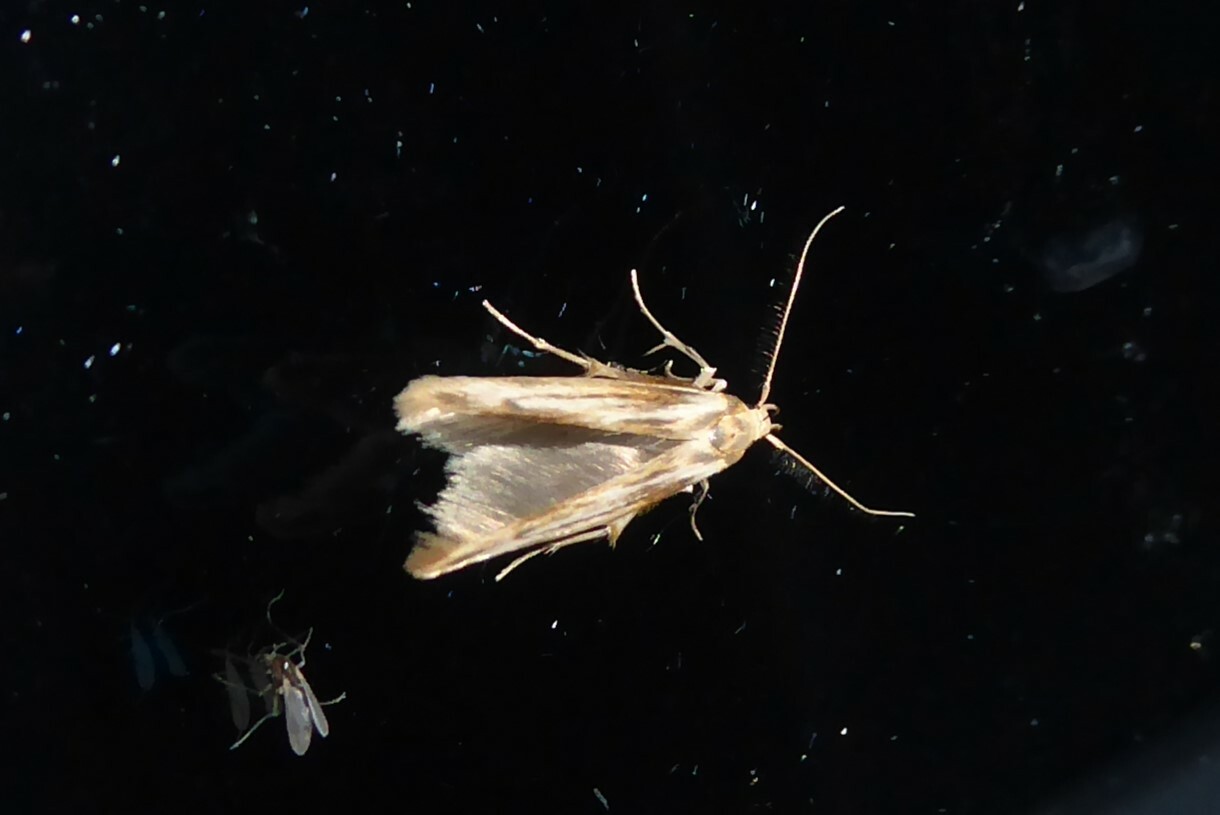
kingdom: Animalia
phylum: Arthropoda
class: Insecta
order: Lepidoptera
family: Stathmopodidae
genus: Stathmopoda
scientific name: Stathmopoda aposema
